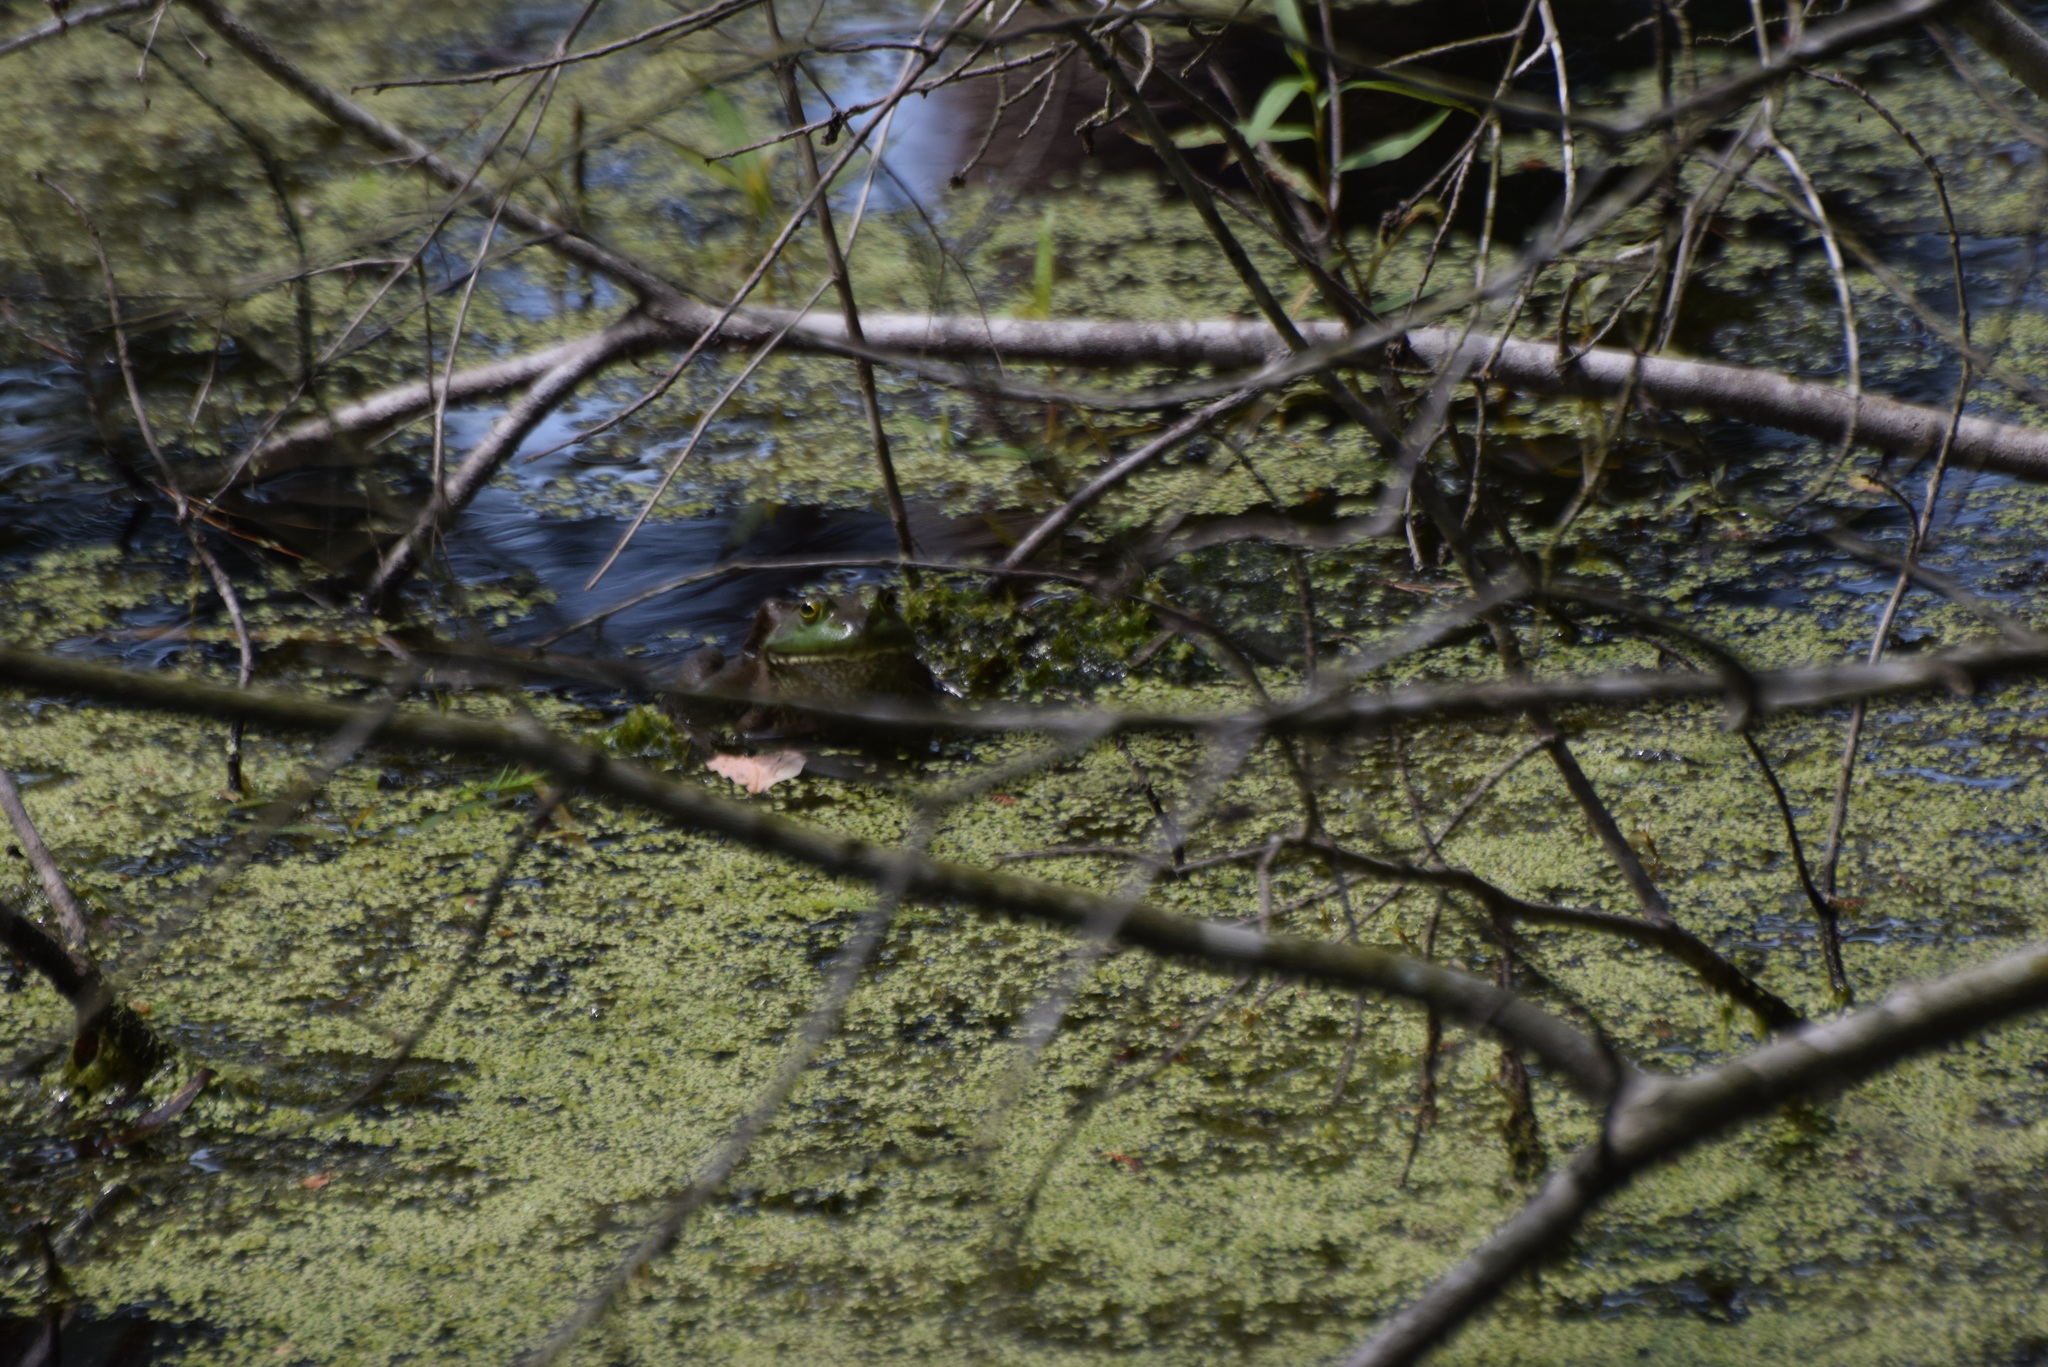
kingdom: Animalia
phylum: Chordata
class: Amphibia
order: Anura
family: Ranidae
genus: Lithobates
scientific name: Lithobates catesbeianus
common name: American bullfrog
